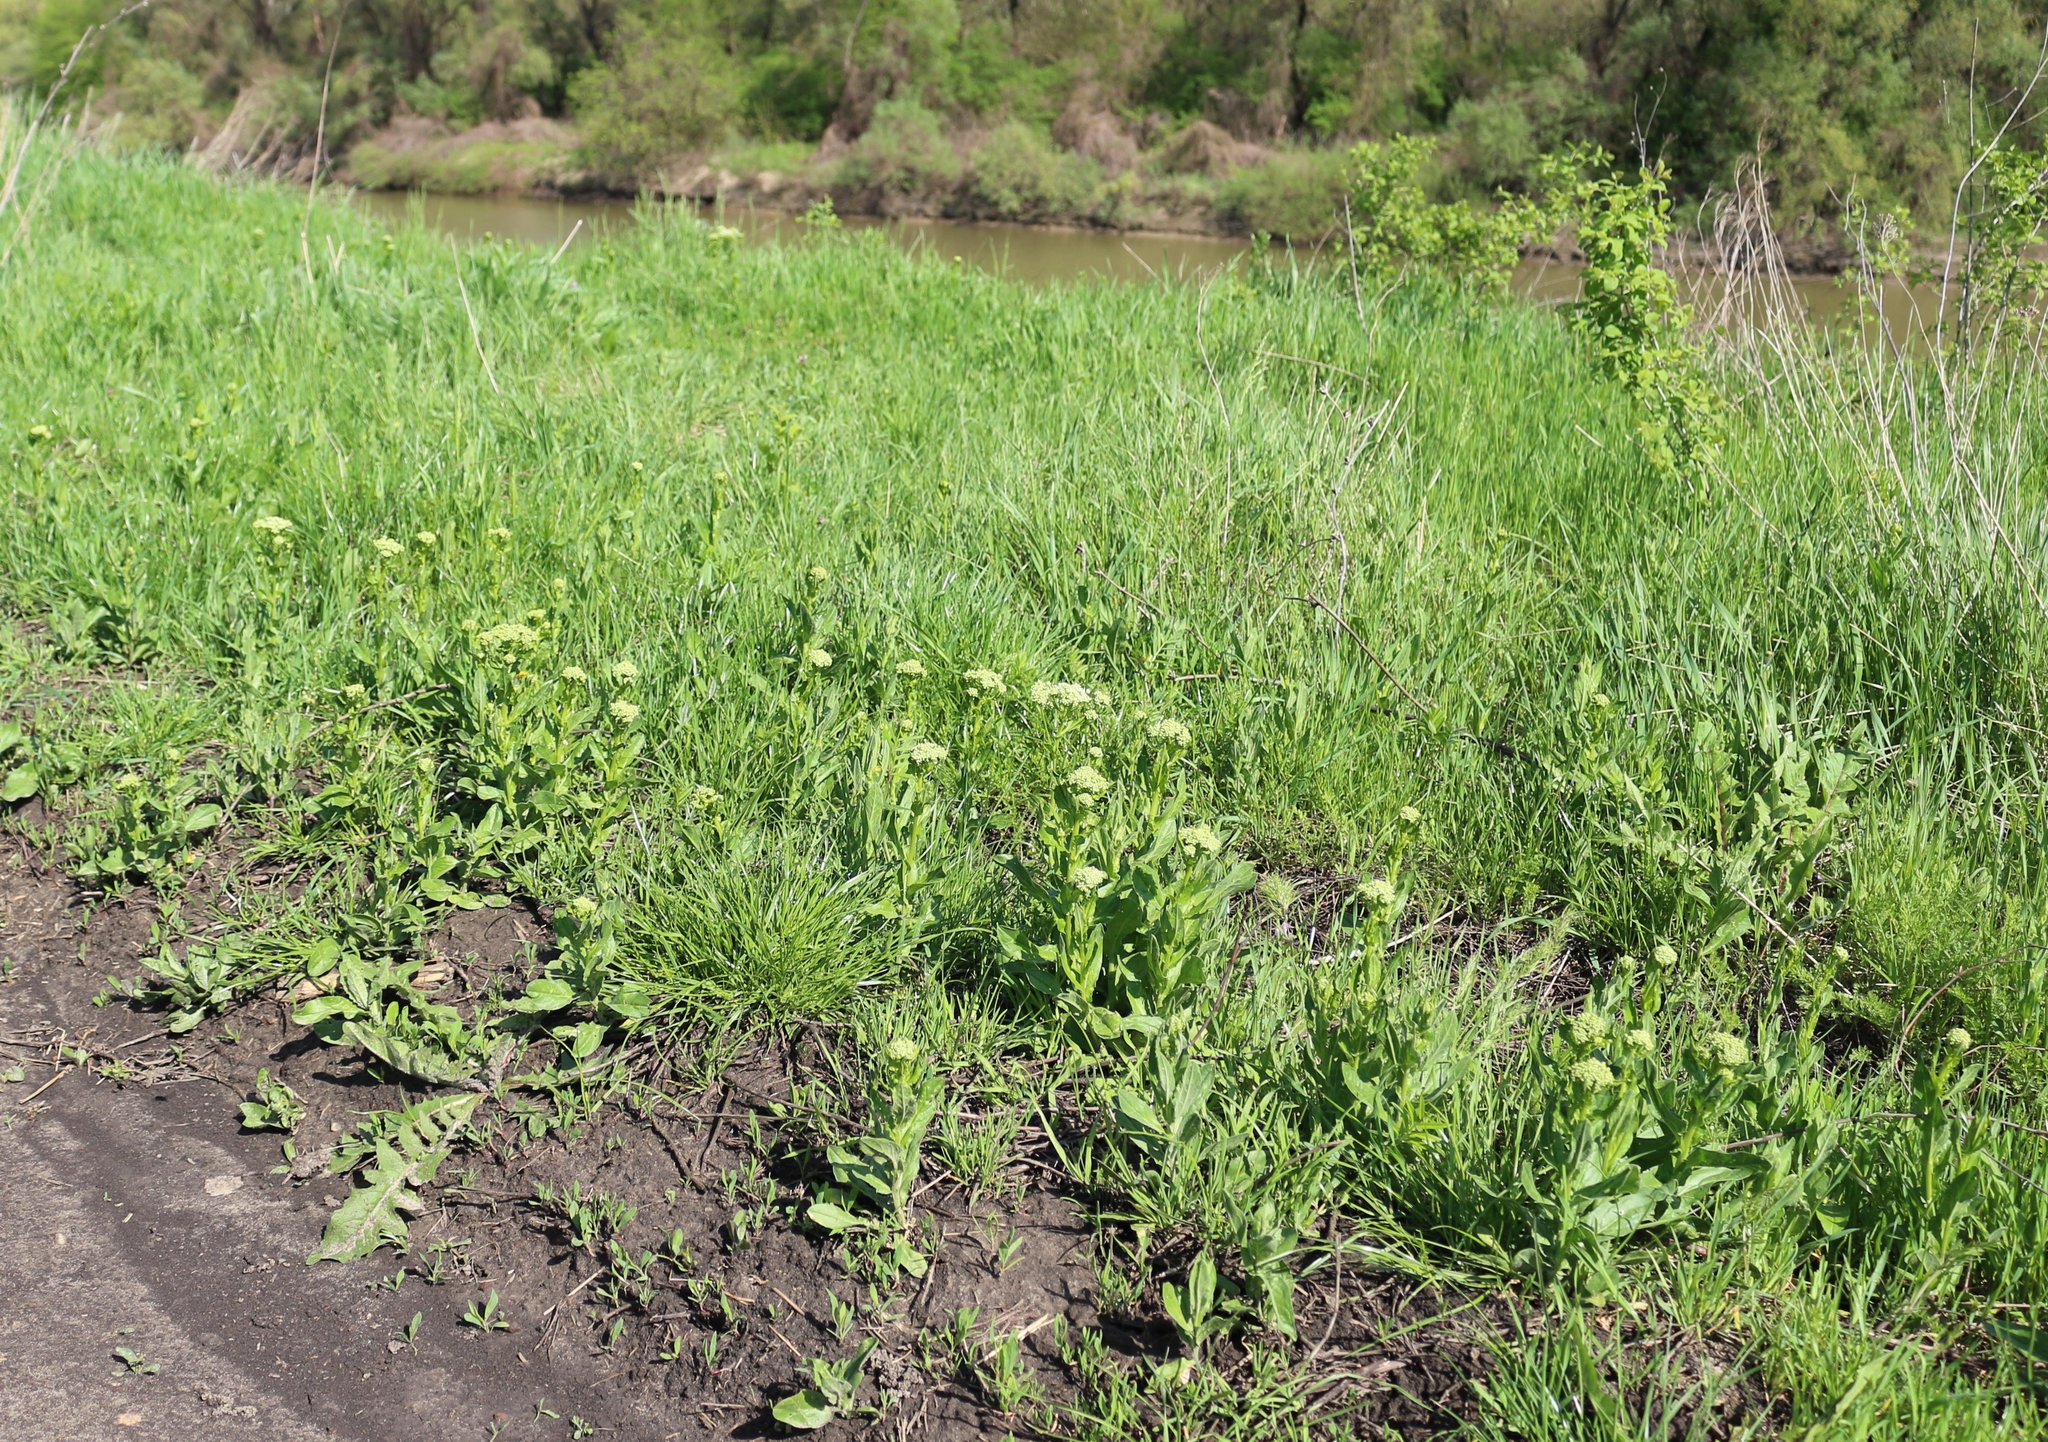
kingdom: Plantae
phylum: Tracheophyta
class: Magnoliopsida
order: Brassicales
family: Brassicaceae
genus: Lepidium
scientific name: Lepidium draba
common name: Hoary cress
